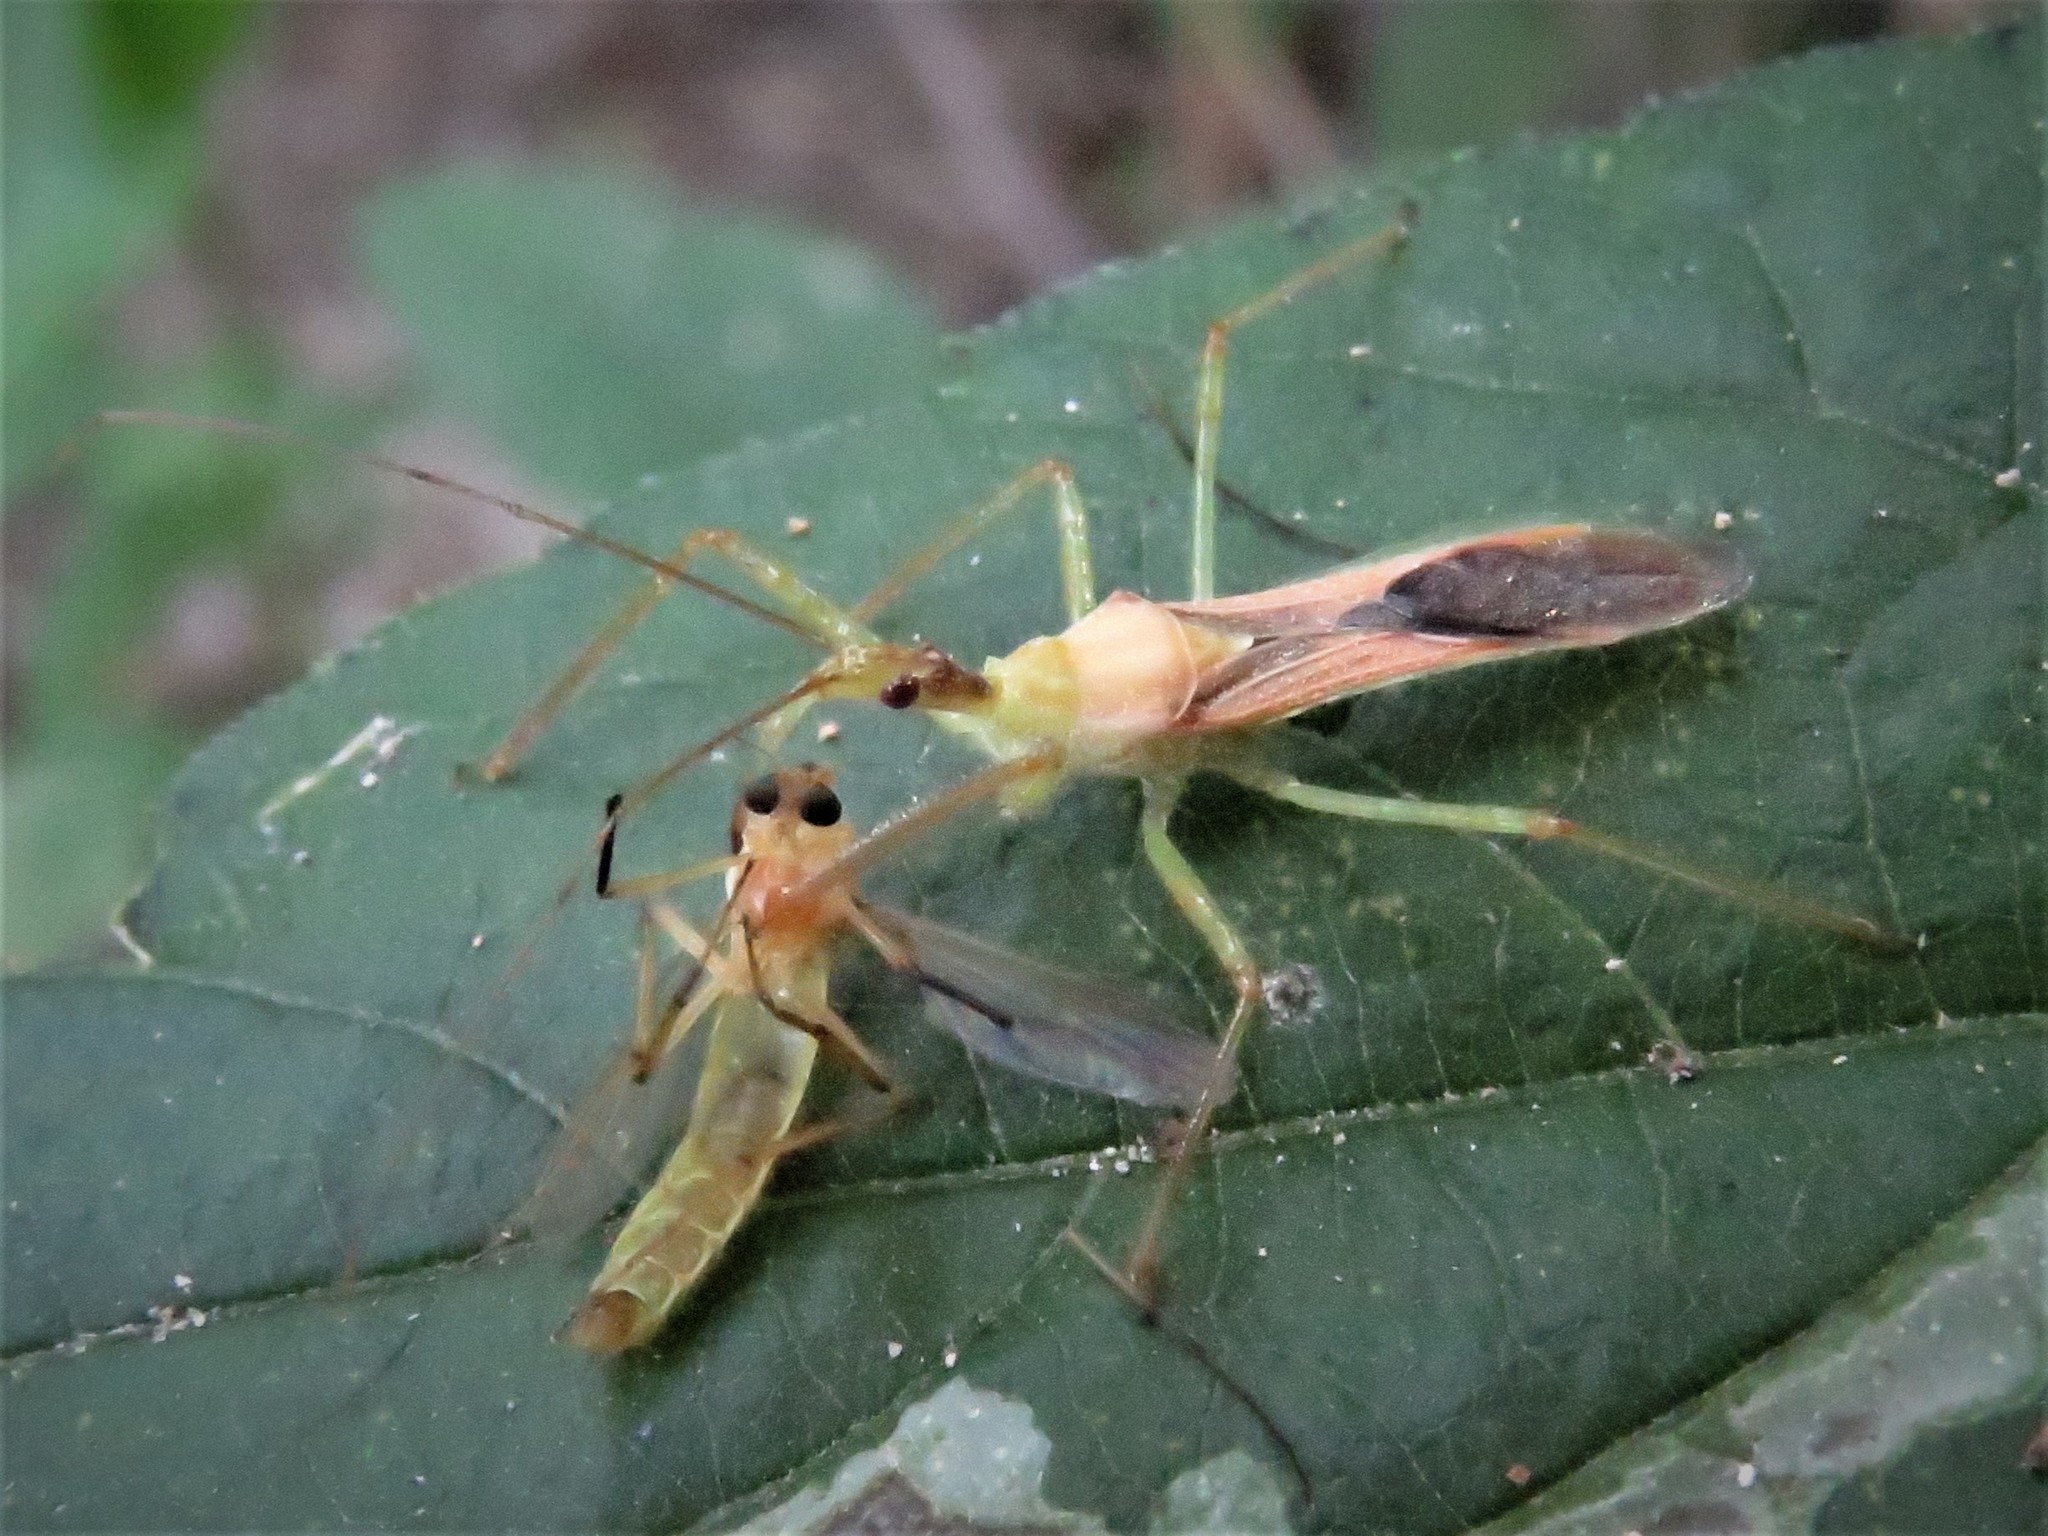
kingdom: Animalia
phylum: Arthropoda
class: Insecta
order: Hemiptera
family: Reduviidae
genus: Zelus
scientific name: Zelus renardii
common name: Assassin bug
